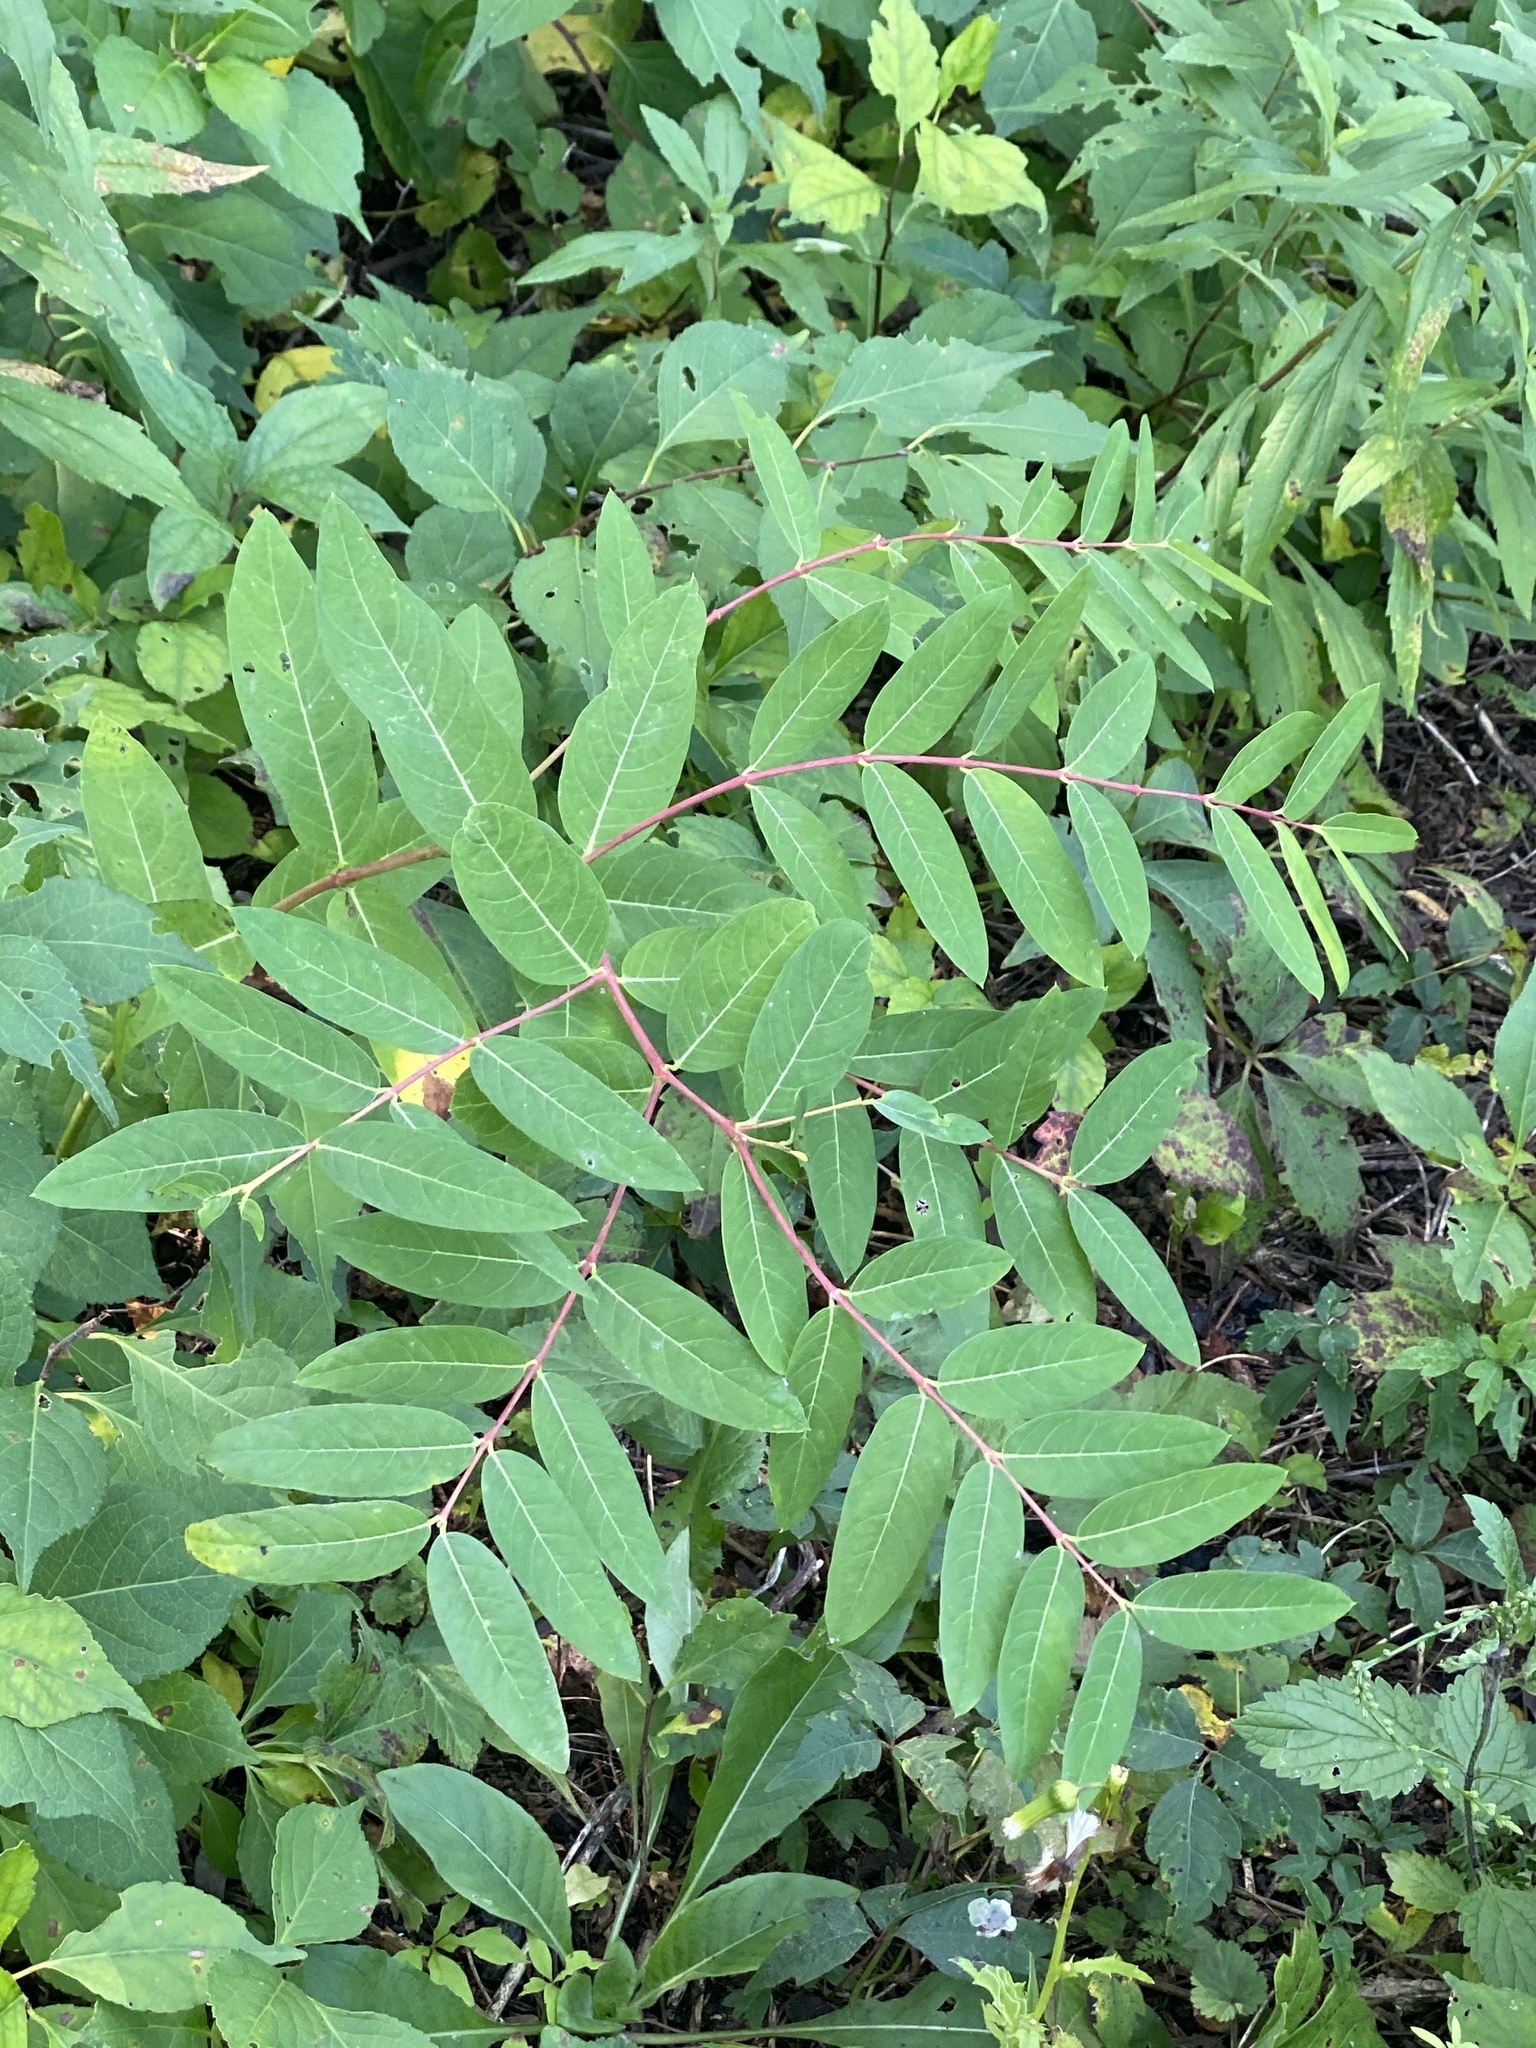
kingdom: Plantae
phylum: Tracheophyta
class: Magnoliopsida
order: Gentianales
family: Apocynaceae
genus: Apocynum
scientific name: Apocynum cannabinum
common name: Hemp dogbane
